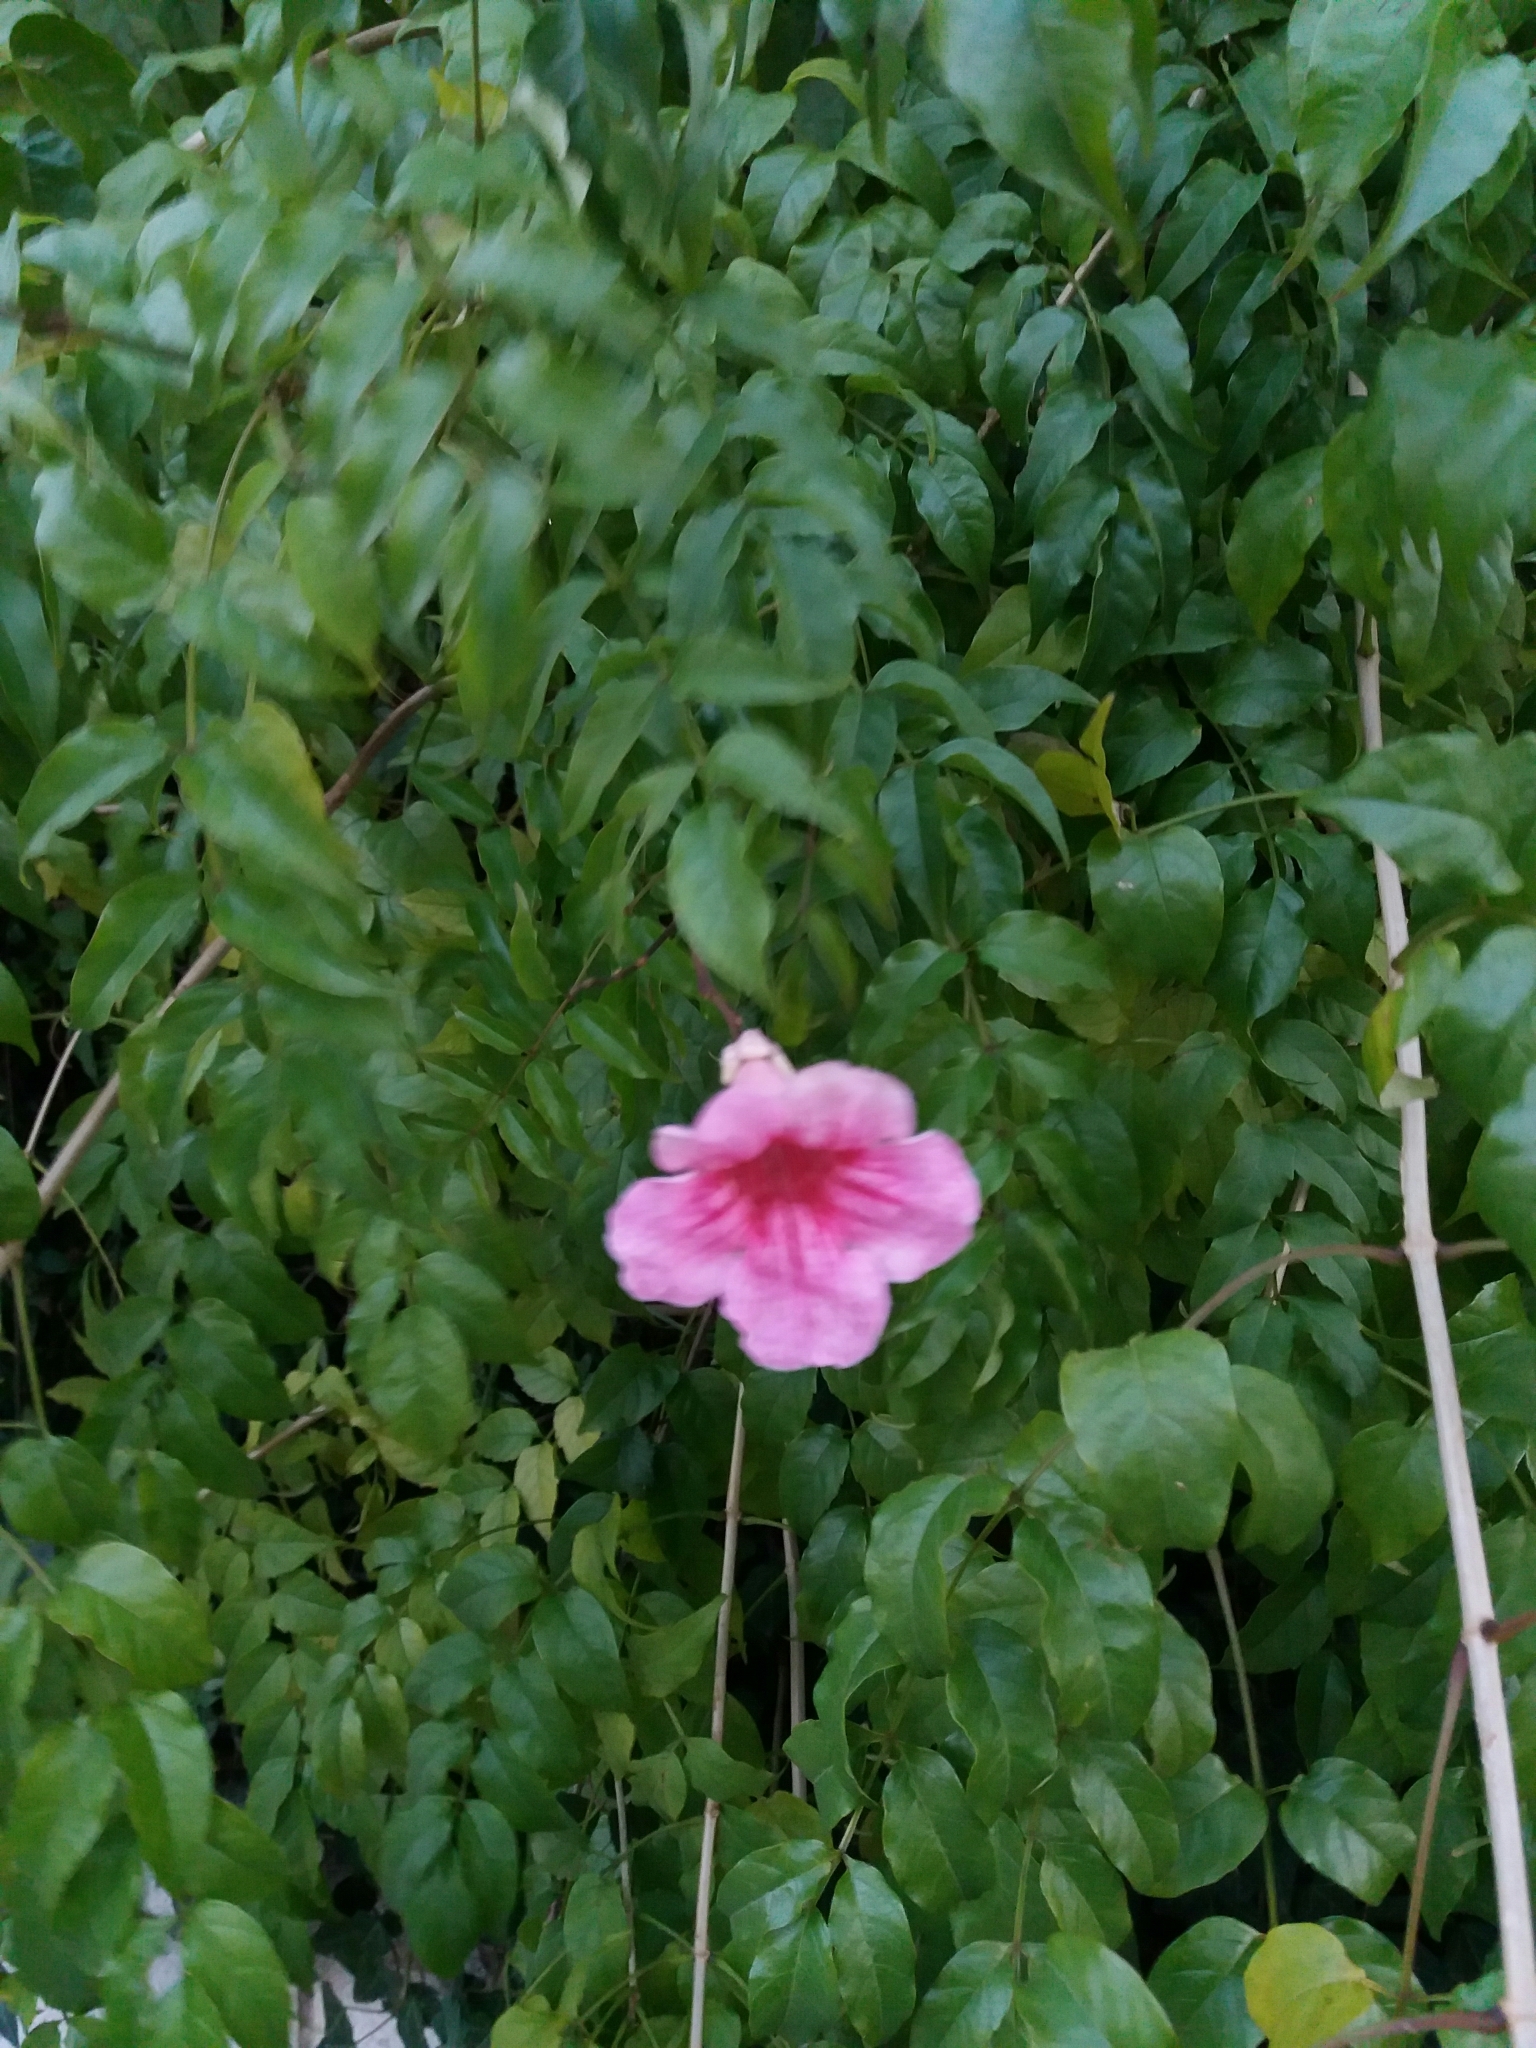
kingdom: Plantae
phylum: Tracheophyta
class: Magnoliopsida
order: Lamiales
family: Bignoniaceae
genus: Podranea
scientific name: Podranea ricasoliana
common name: Zimbabwe creeper
